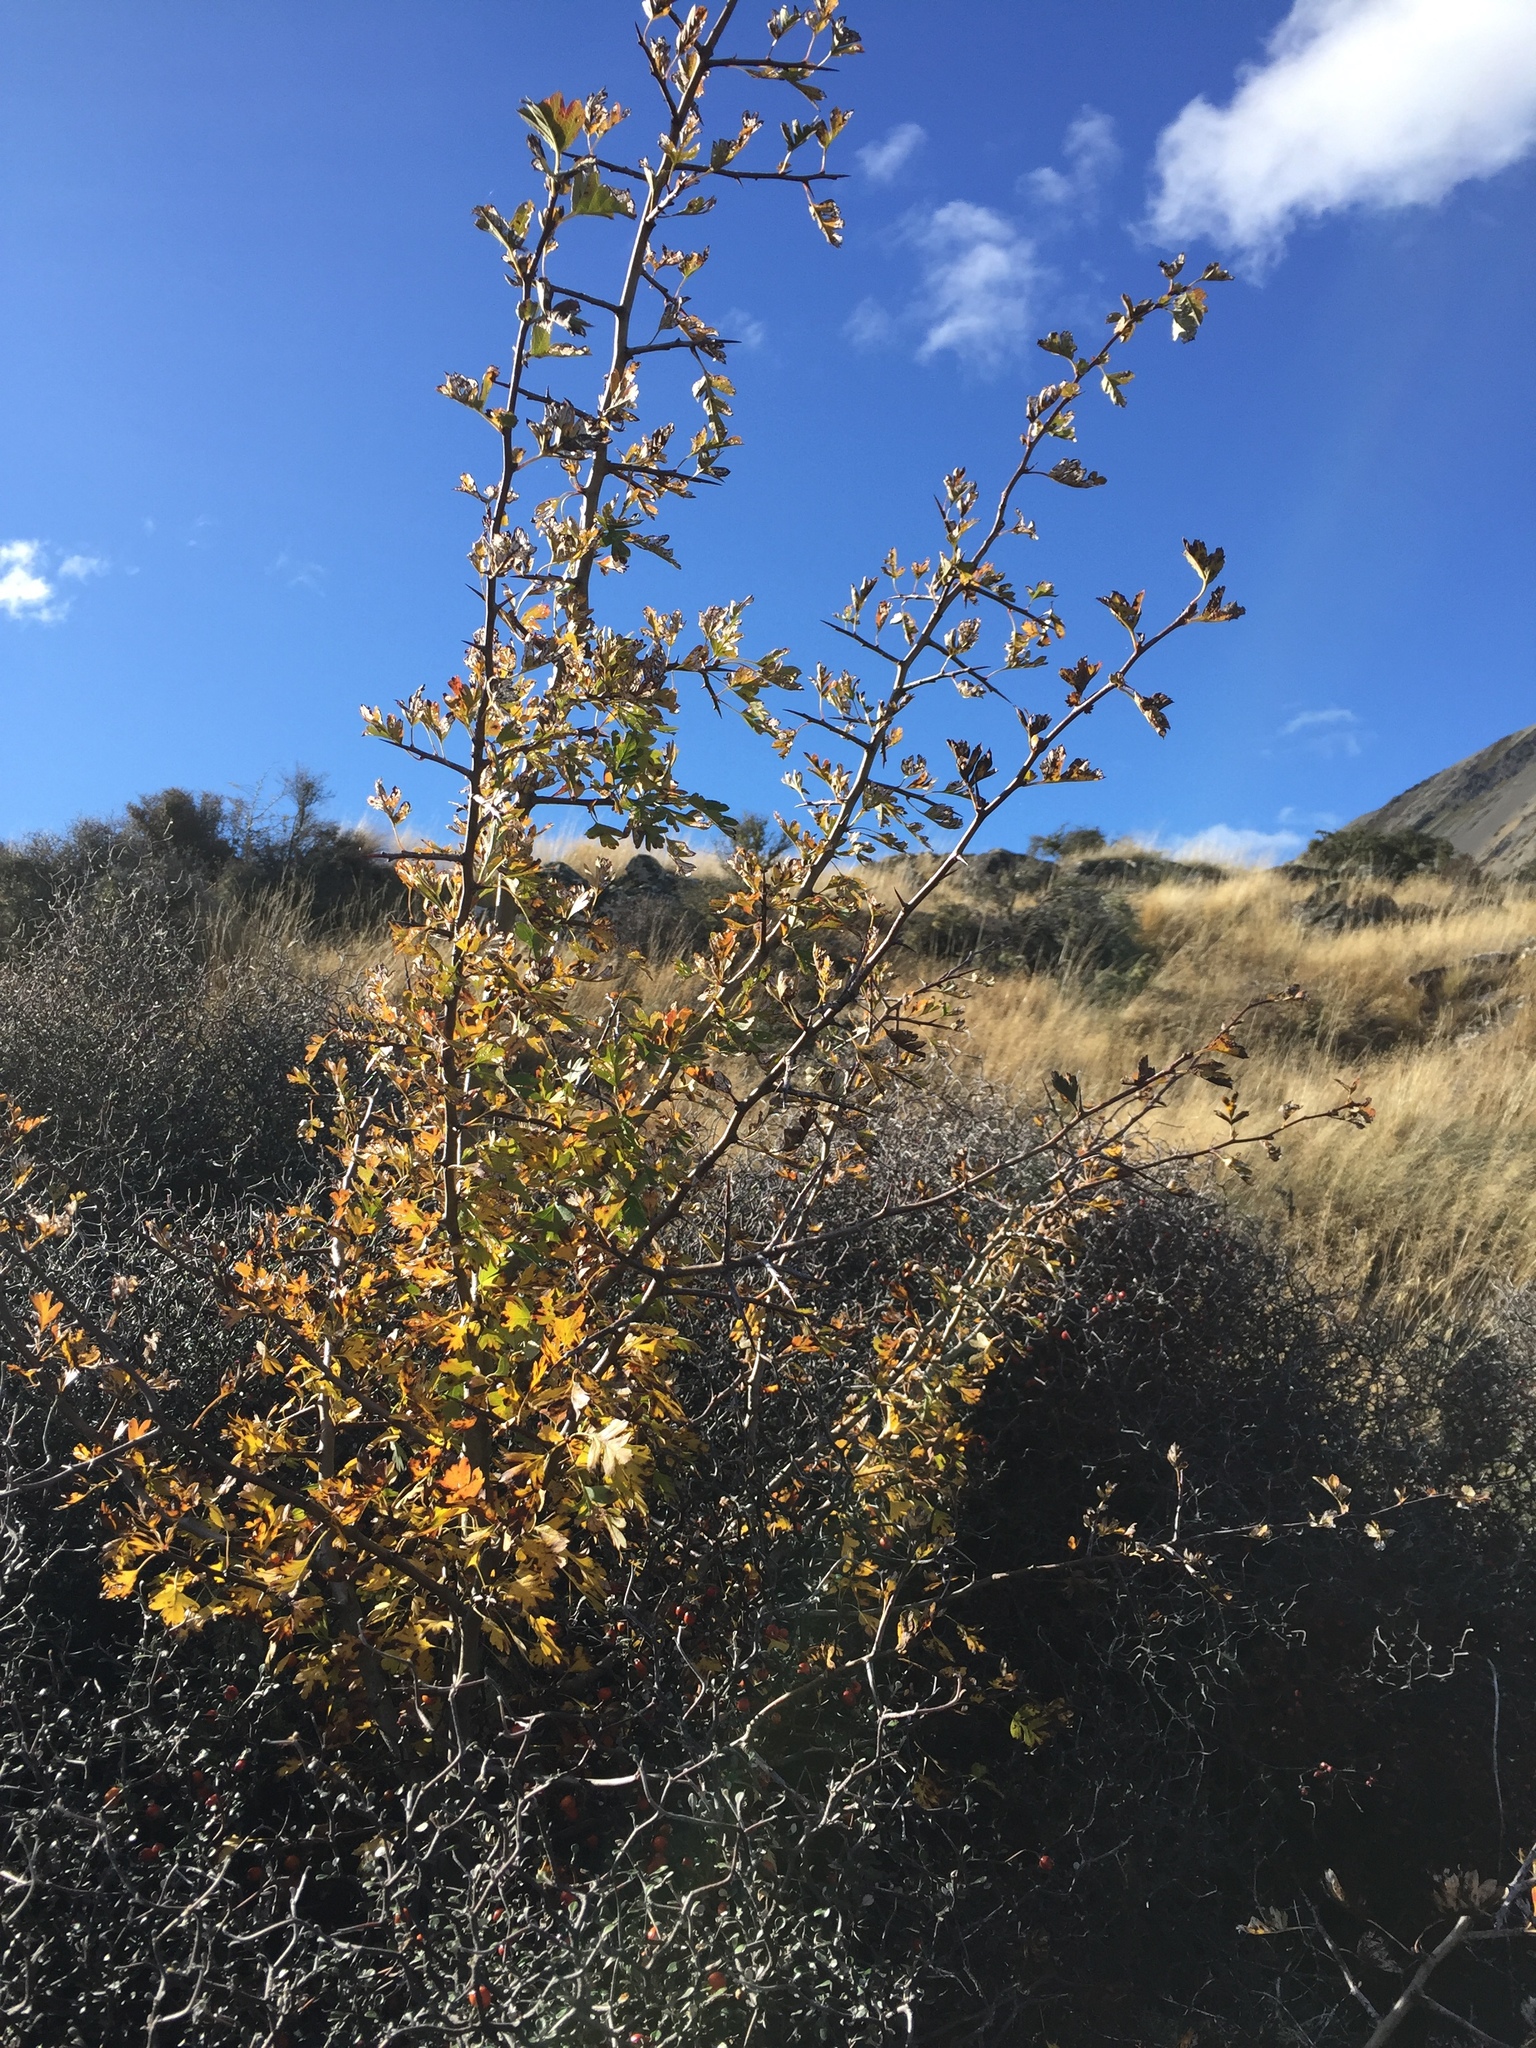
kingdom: Plantae
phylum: Tracheophyta
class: Magnoliopsida
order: Rosales
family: Rosaceae
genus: Crataegus
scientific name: Crataegus monogyna
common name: Hawthorn
